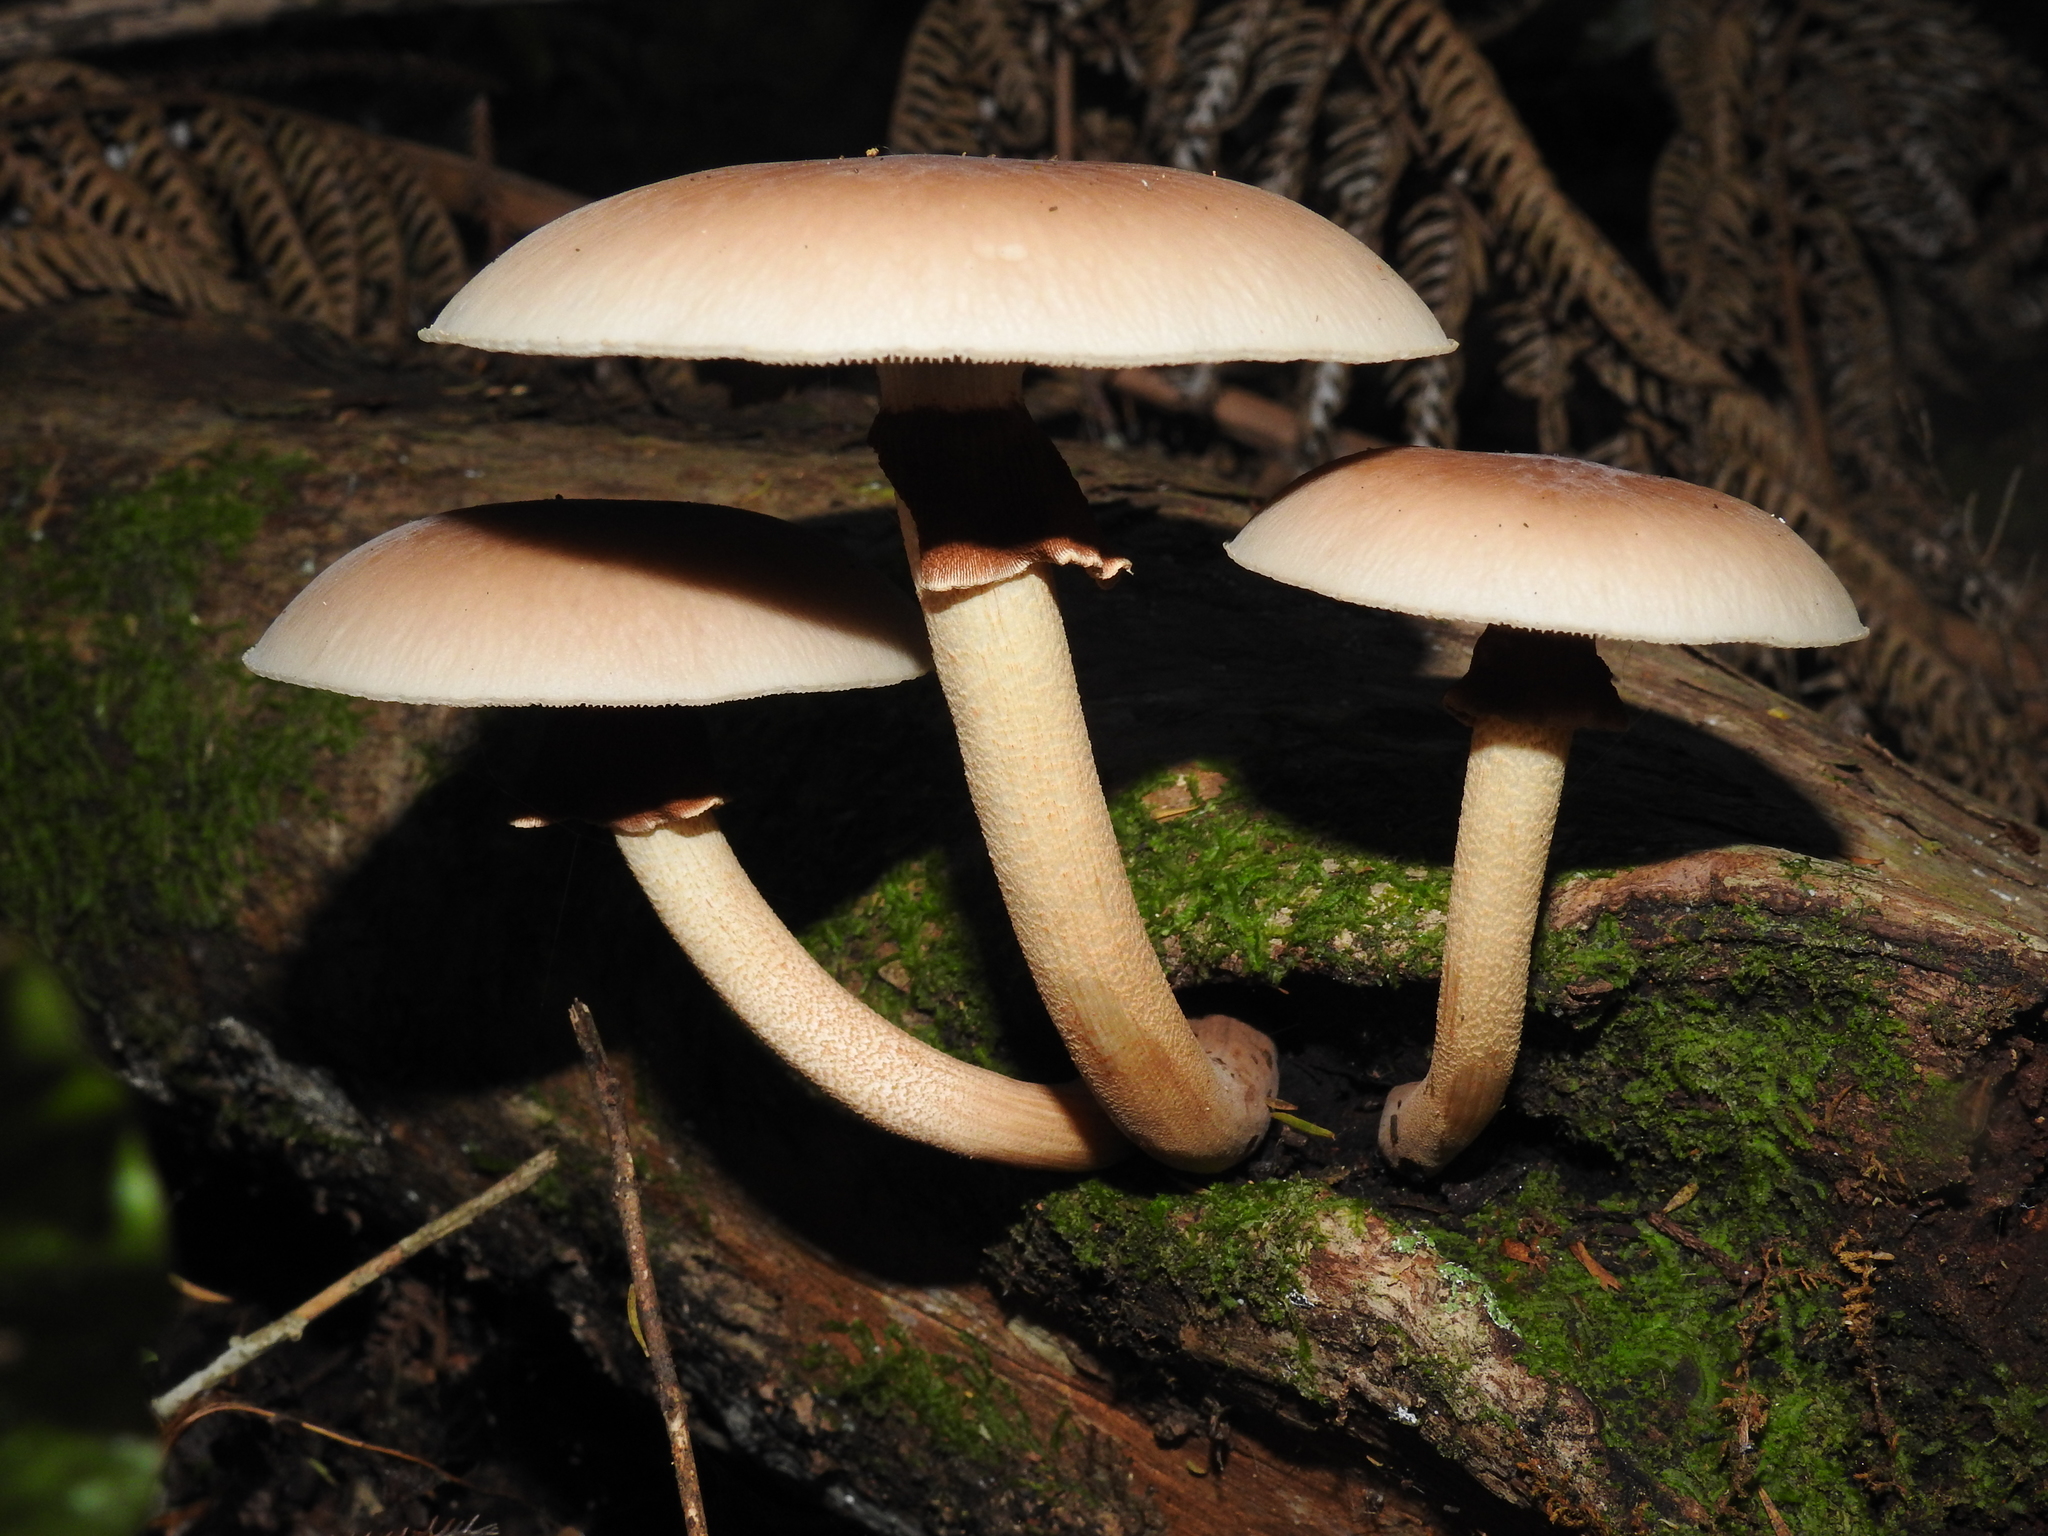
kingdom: Fungi
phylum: Basidiomycota
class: Agaricomycetes
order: Agaricales
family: Tubariaceae
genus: Cyclocybe
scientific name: Cyclocybe parasitica
